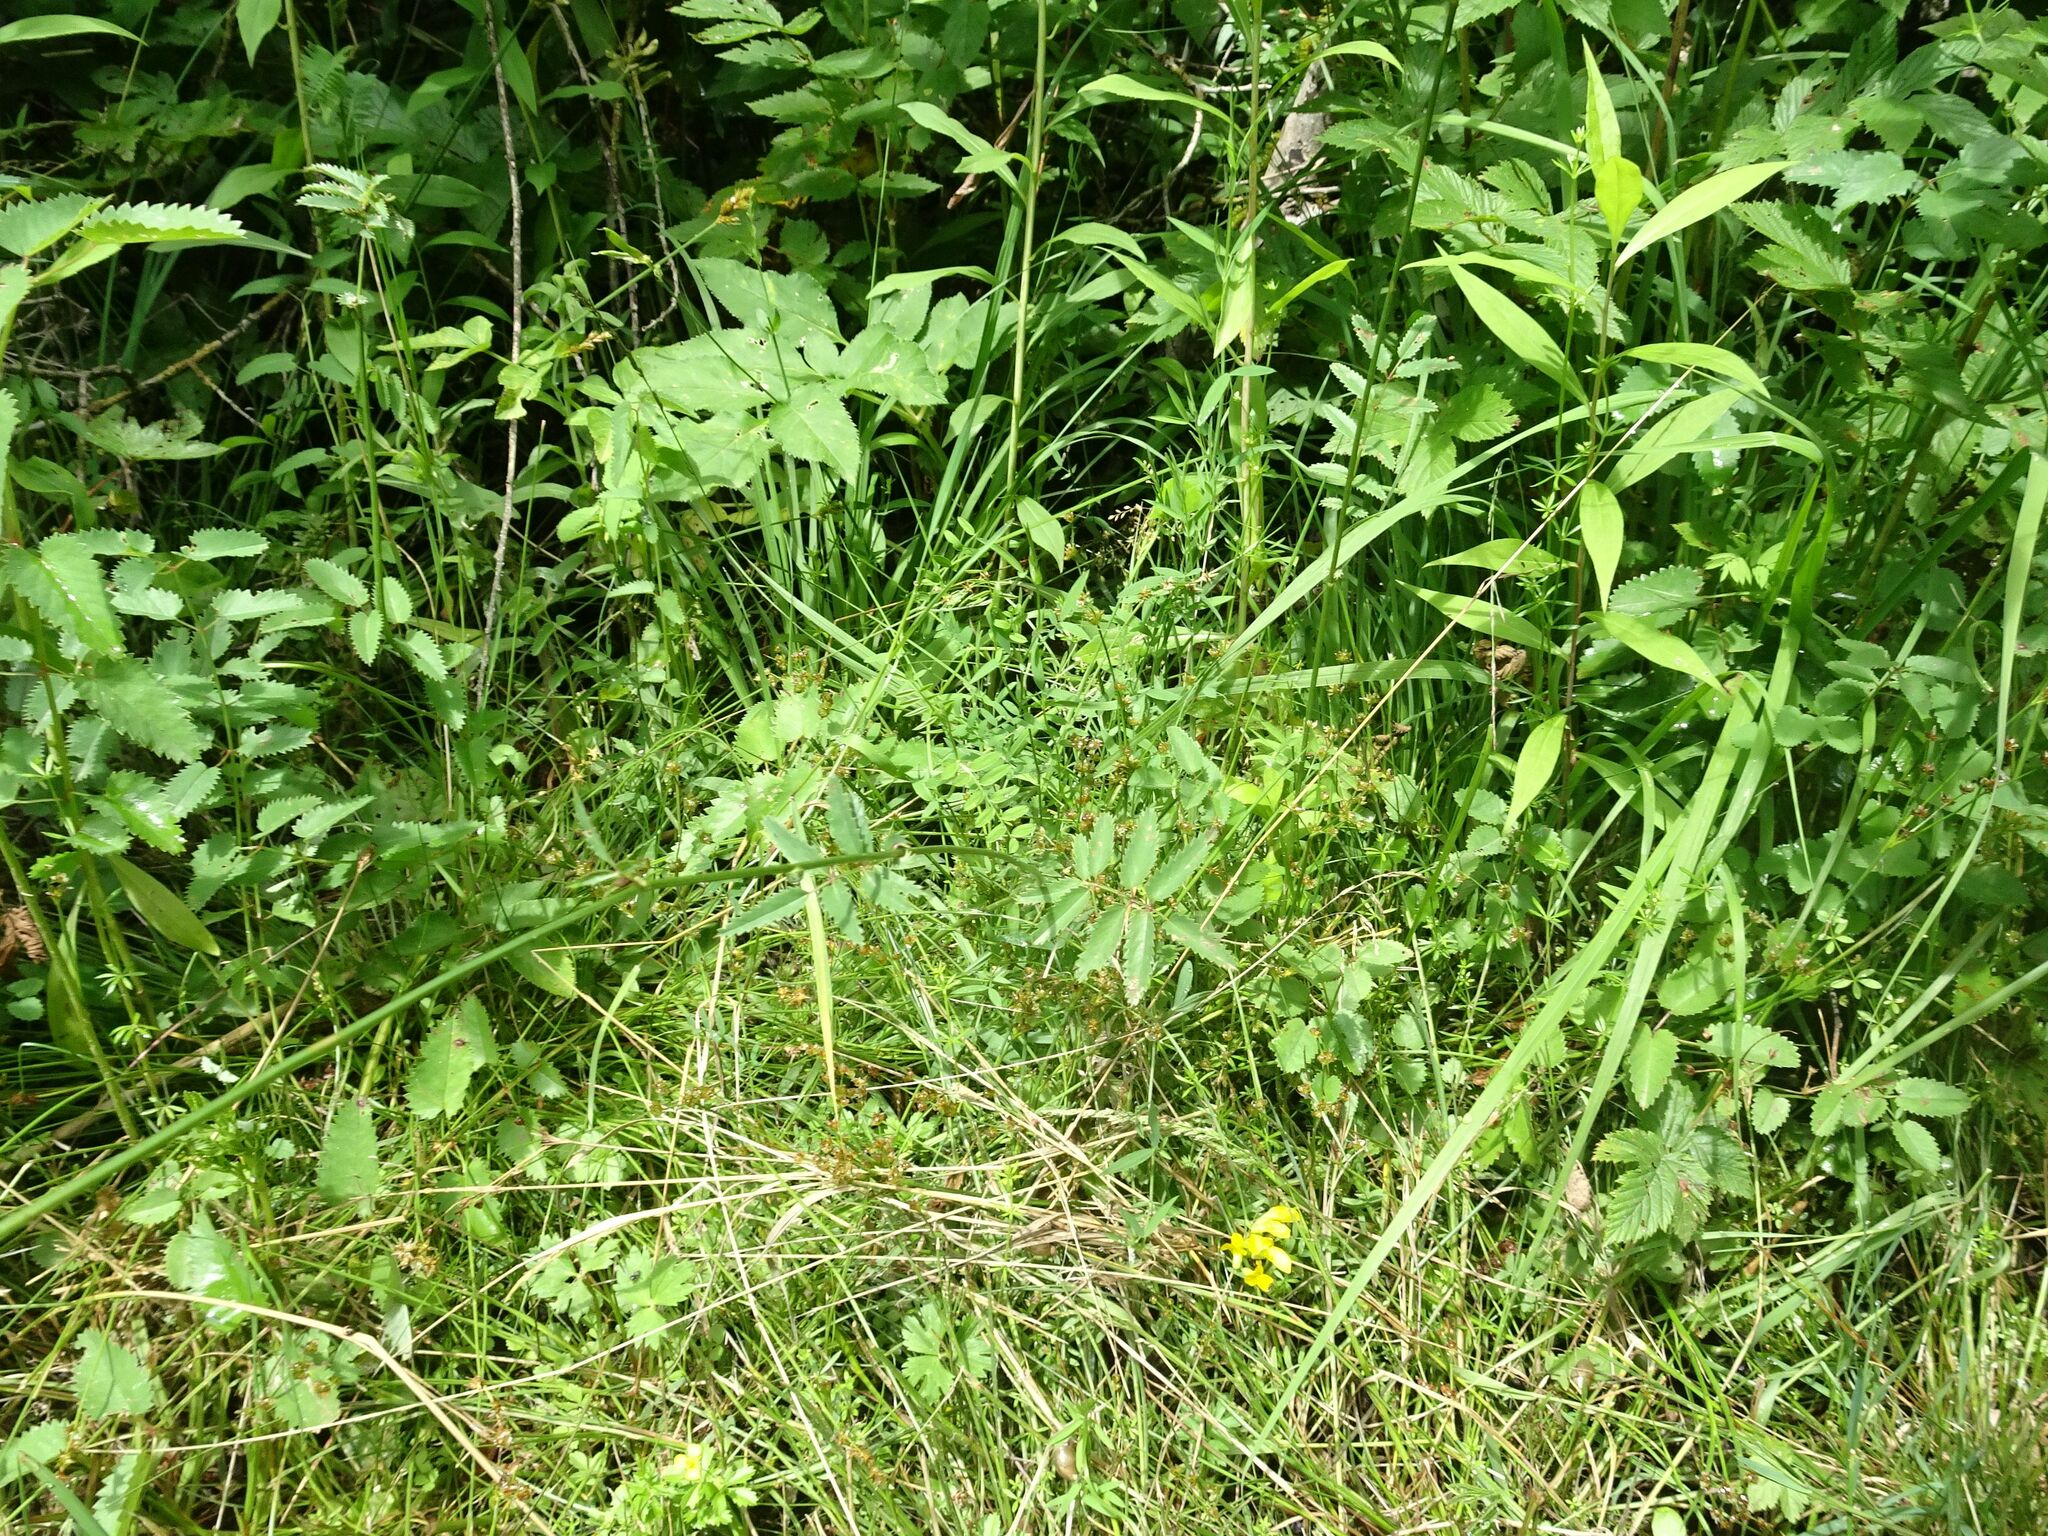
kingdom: Plantae
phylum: Tracheophyta
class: Magnoliopsida
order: Rosales
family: Rosaceae
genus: Sanguisorba
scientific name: Sanguisorba officinalis
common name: Great burnet
